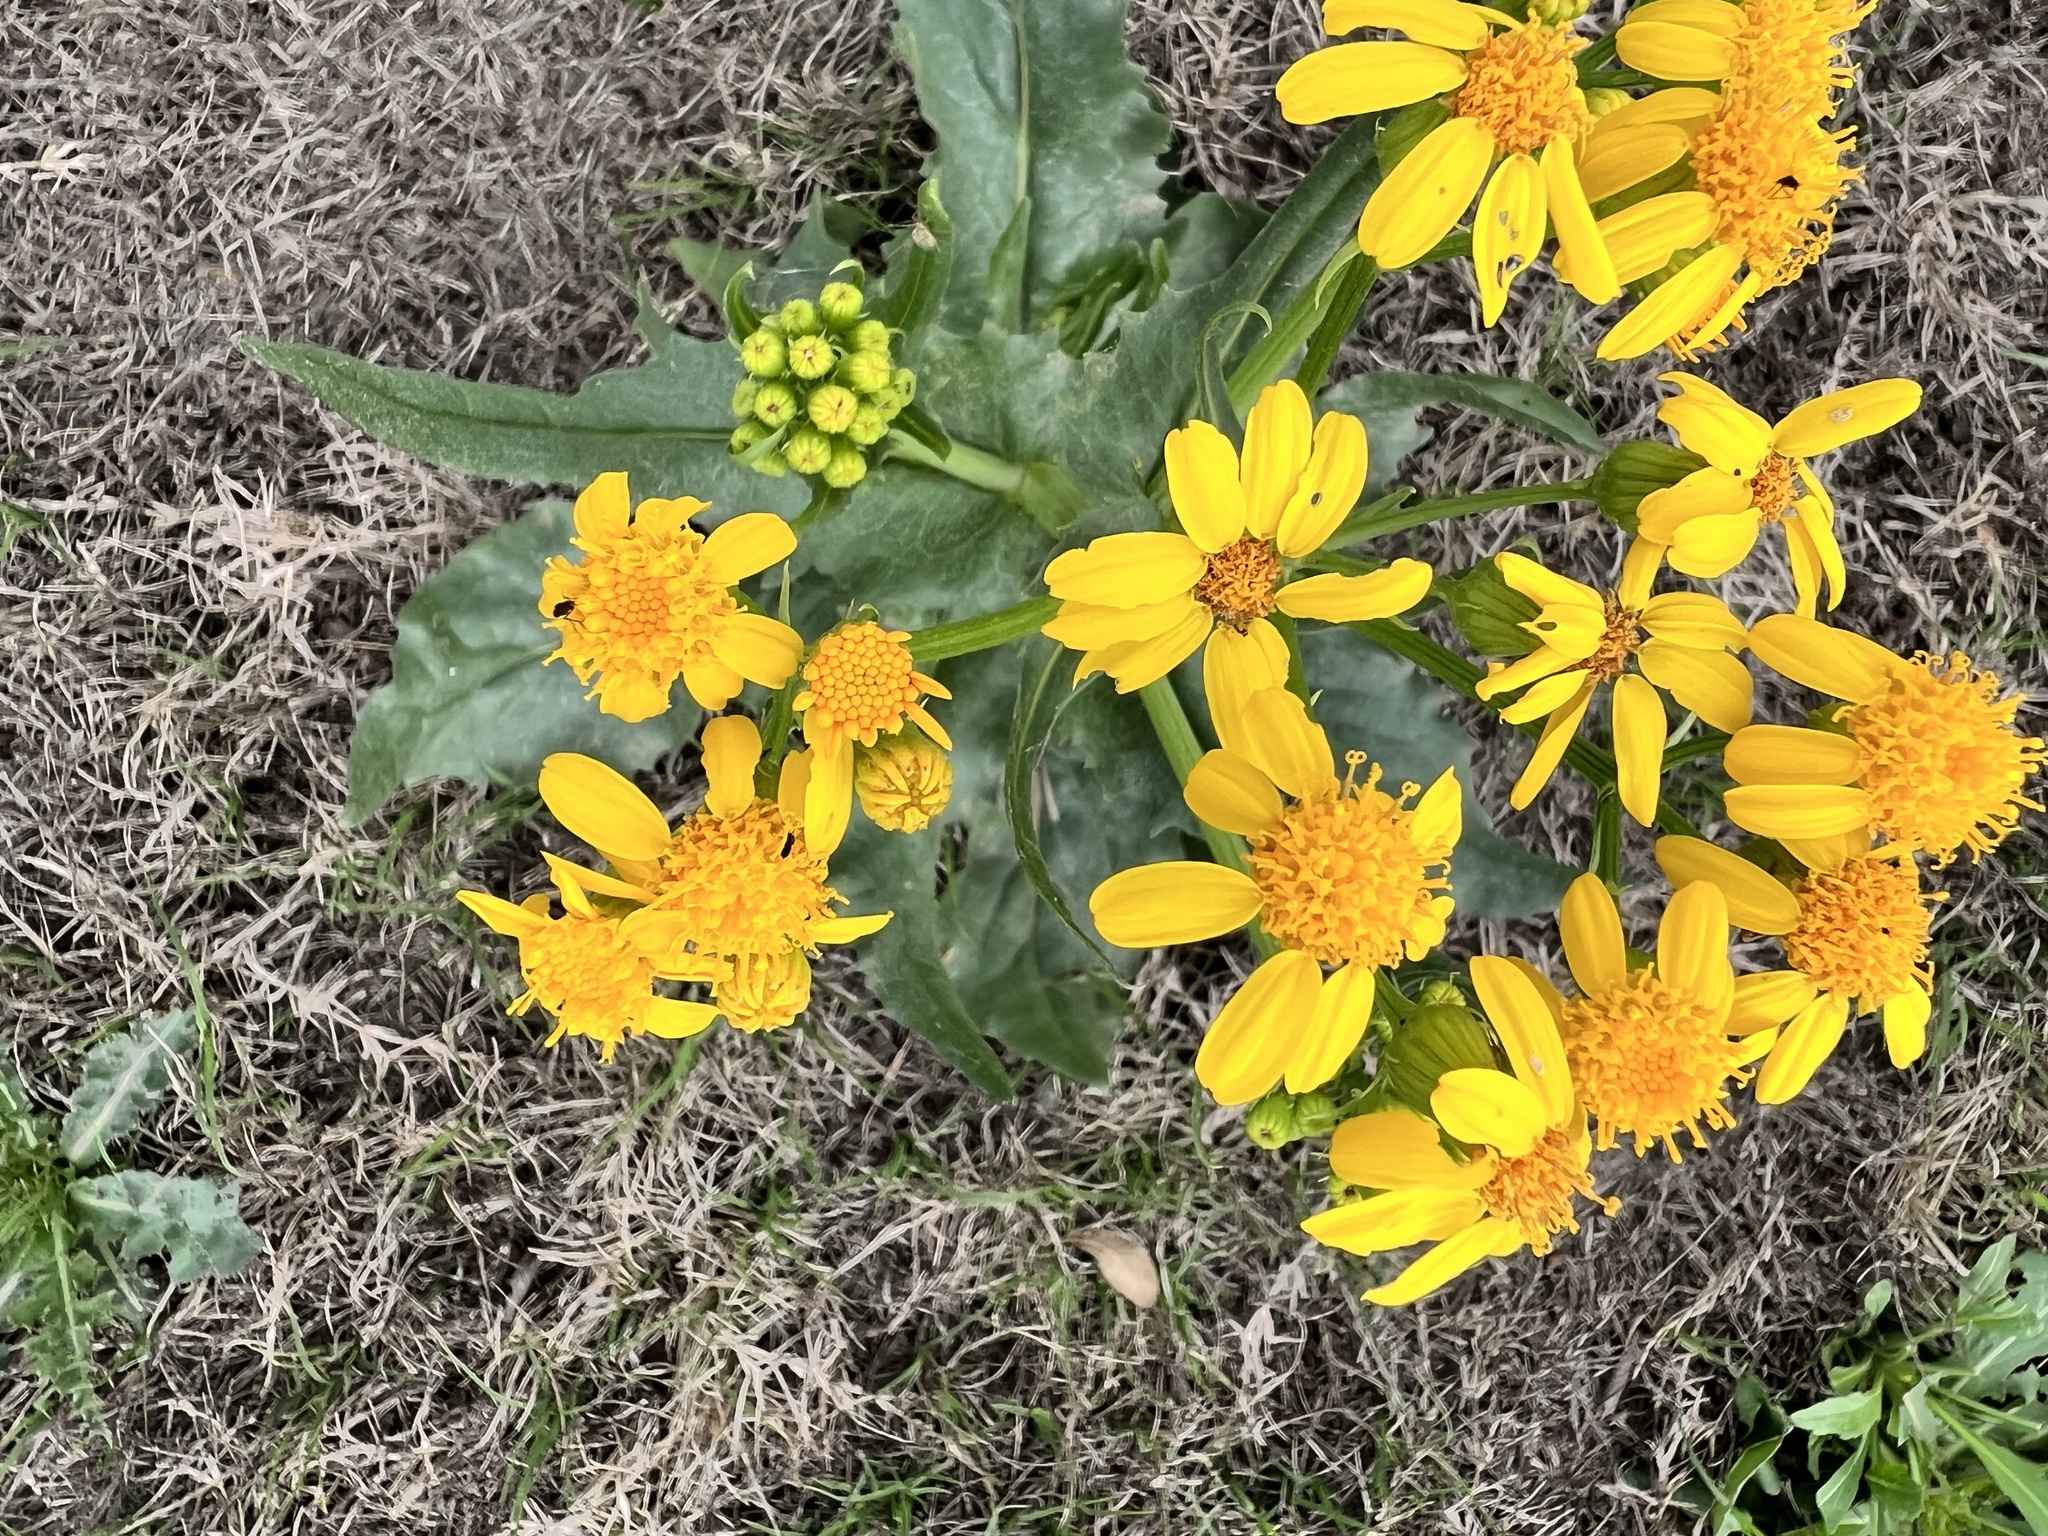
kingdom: Plantae
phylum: Tracheophyta
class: Magnoliopsida
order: Asterales
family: Asteraceae
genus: Senecio
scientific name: Senecio ampullaceus
